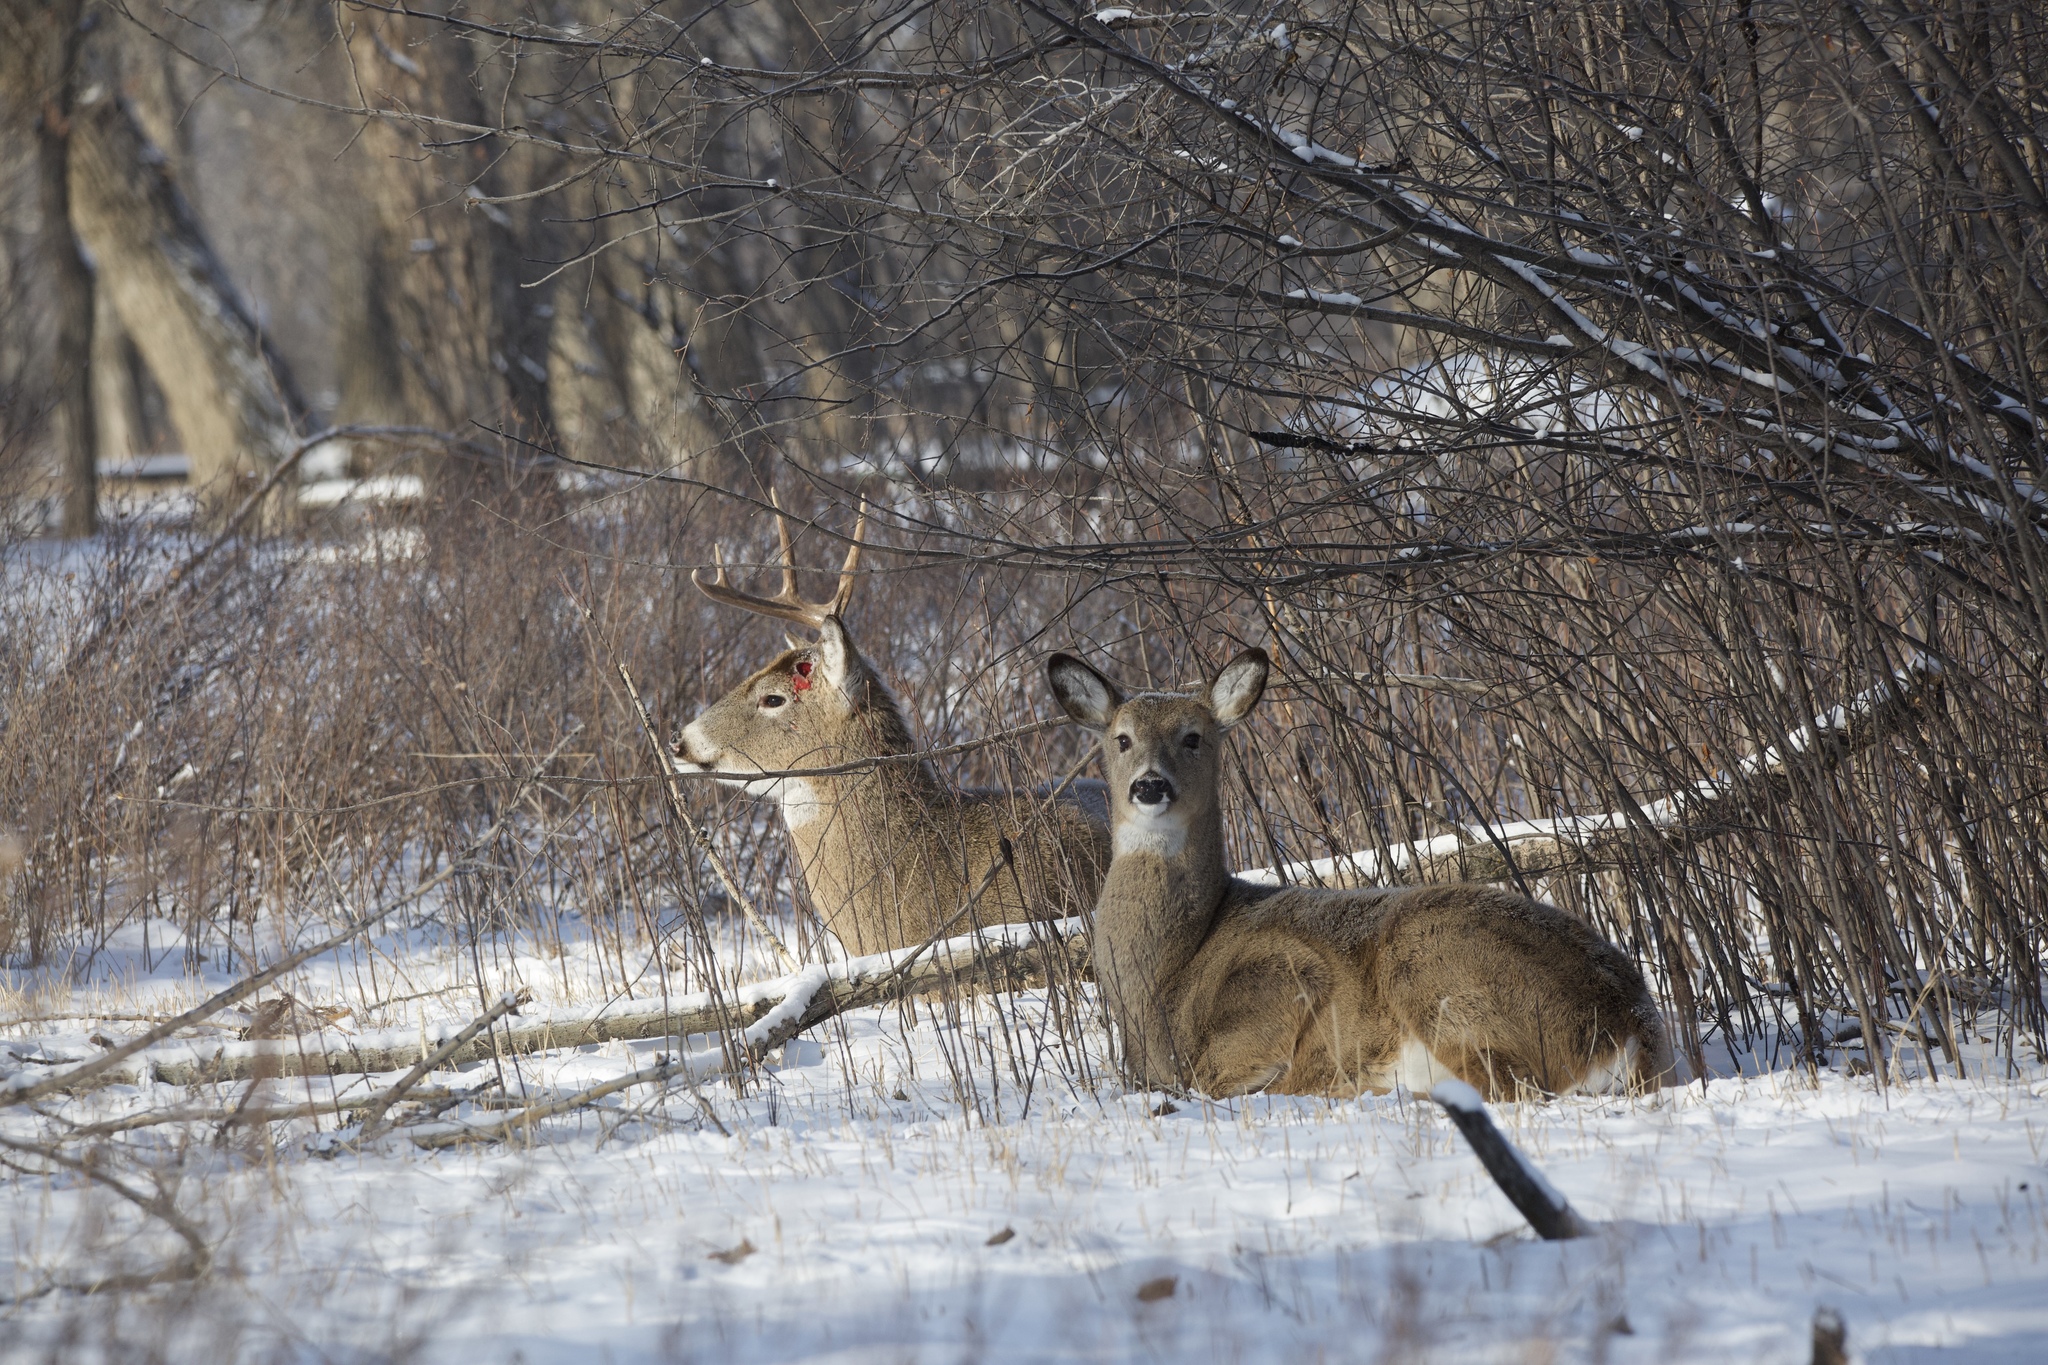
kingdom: Animalia
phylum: Chordata
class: Mammalia
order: Artiodactyla
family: Cervidae
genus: Odocoileus
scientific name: Odocoileus virginianus
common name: White-tailed deer
